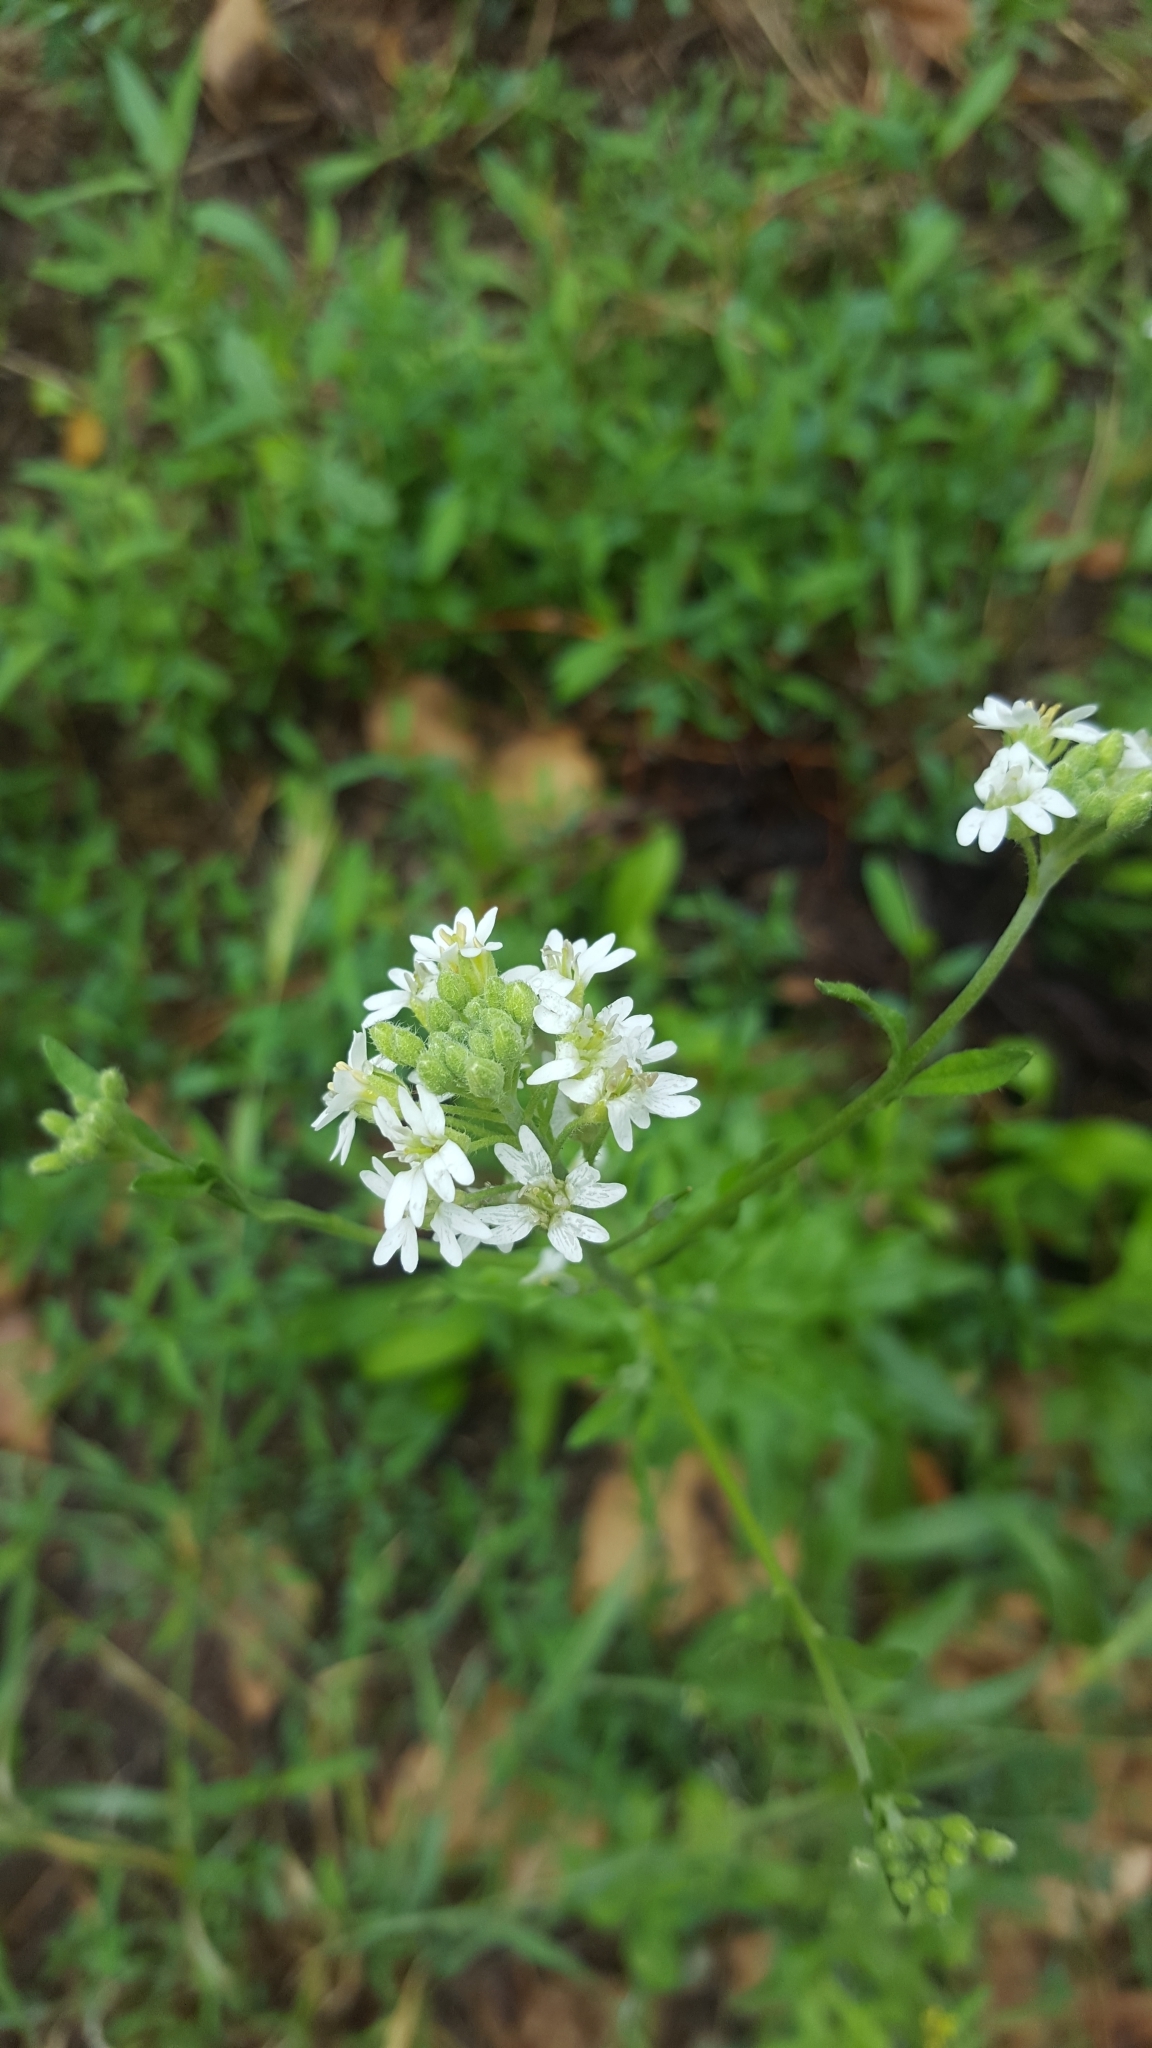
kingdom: Plantae
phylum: Tracheophyta
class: Magnoliopsida
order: Brassicales
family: Brassicaceae
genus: Berteroa
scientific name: Berteroa incana
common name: Hoary alison
